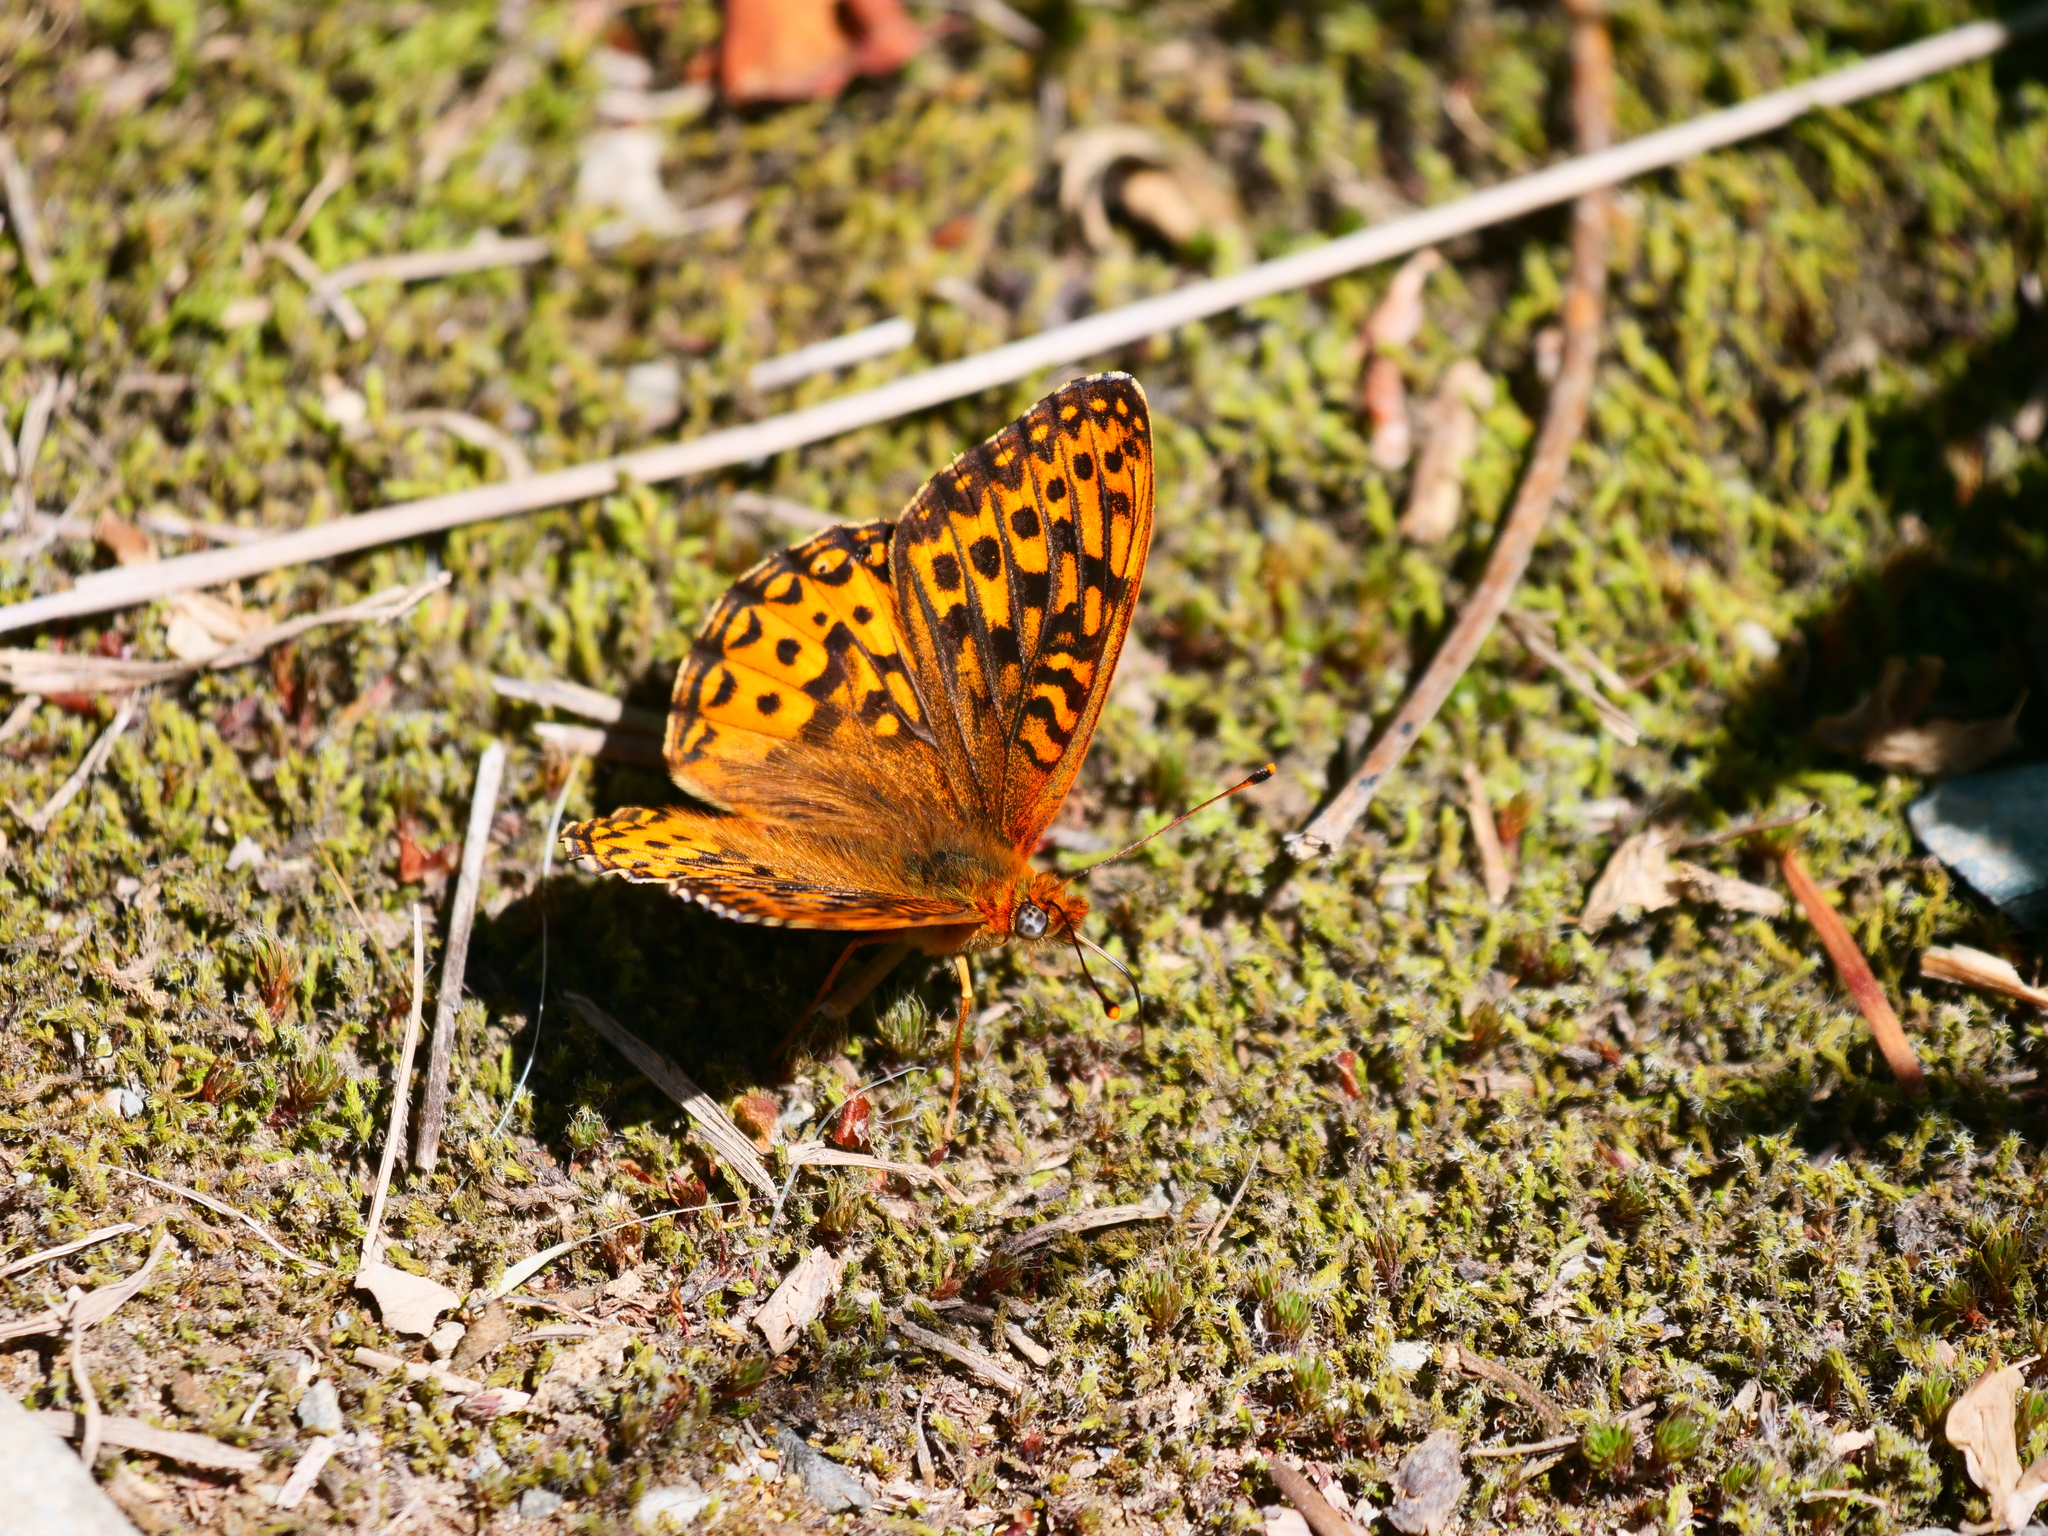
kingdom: Animalia
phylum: Arthropoda
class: Insecta
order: Lepidoptera
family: Nymphalidae
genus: Speyeria
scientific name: Speyeria hydaspe
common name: Hydaspe fritillary
